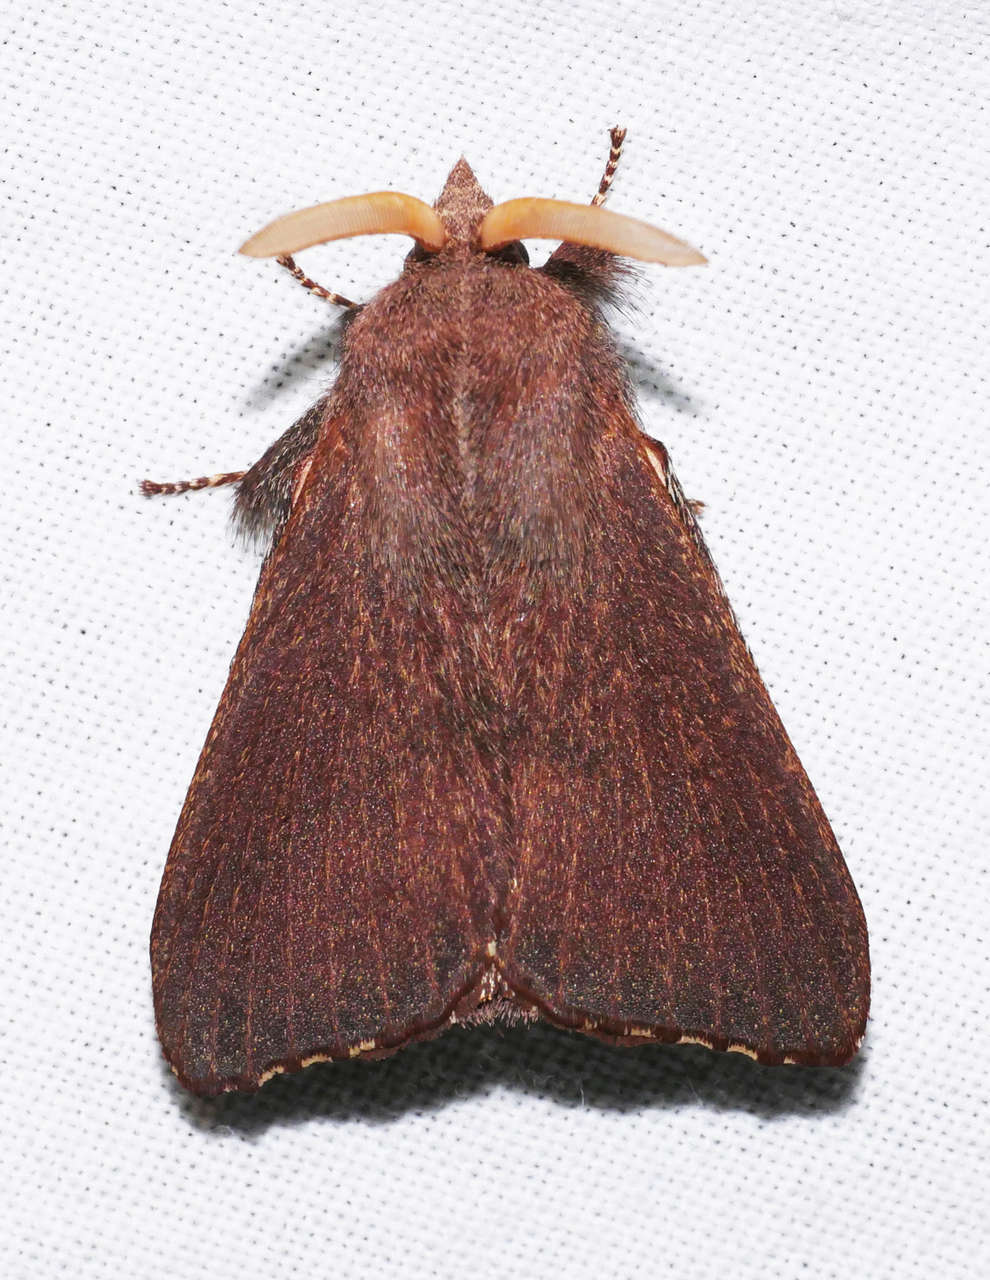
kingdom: Animalia
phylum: Arthropoda
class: Insecta
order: Lepidoptera
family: Lasiocampidae
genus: Pararguda
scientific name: Pararguda rufescens
